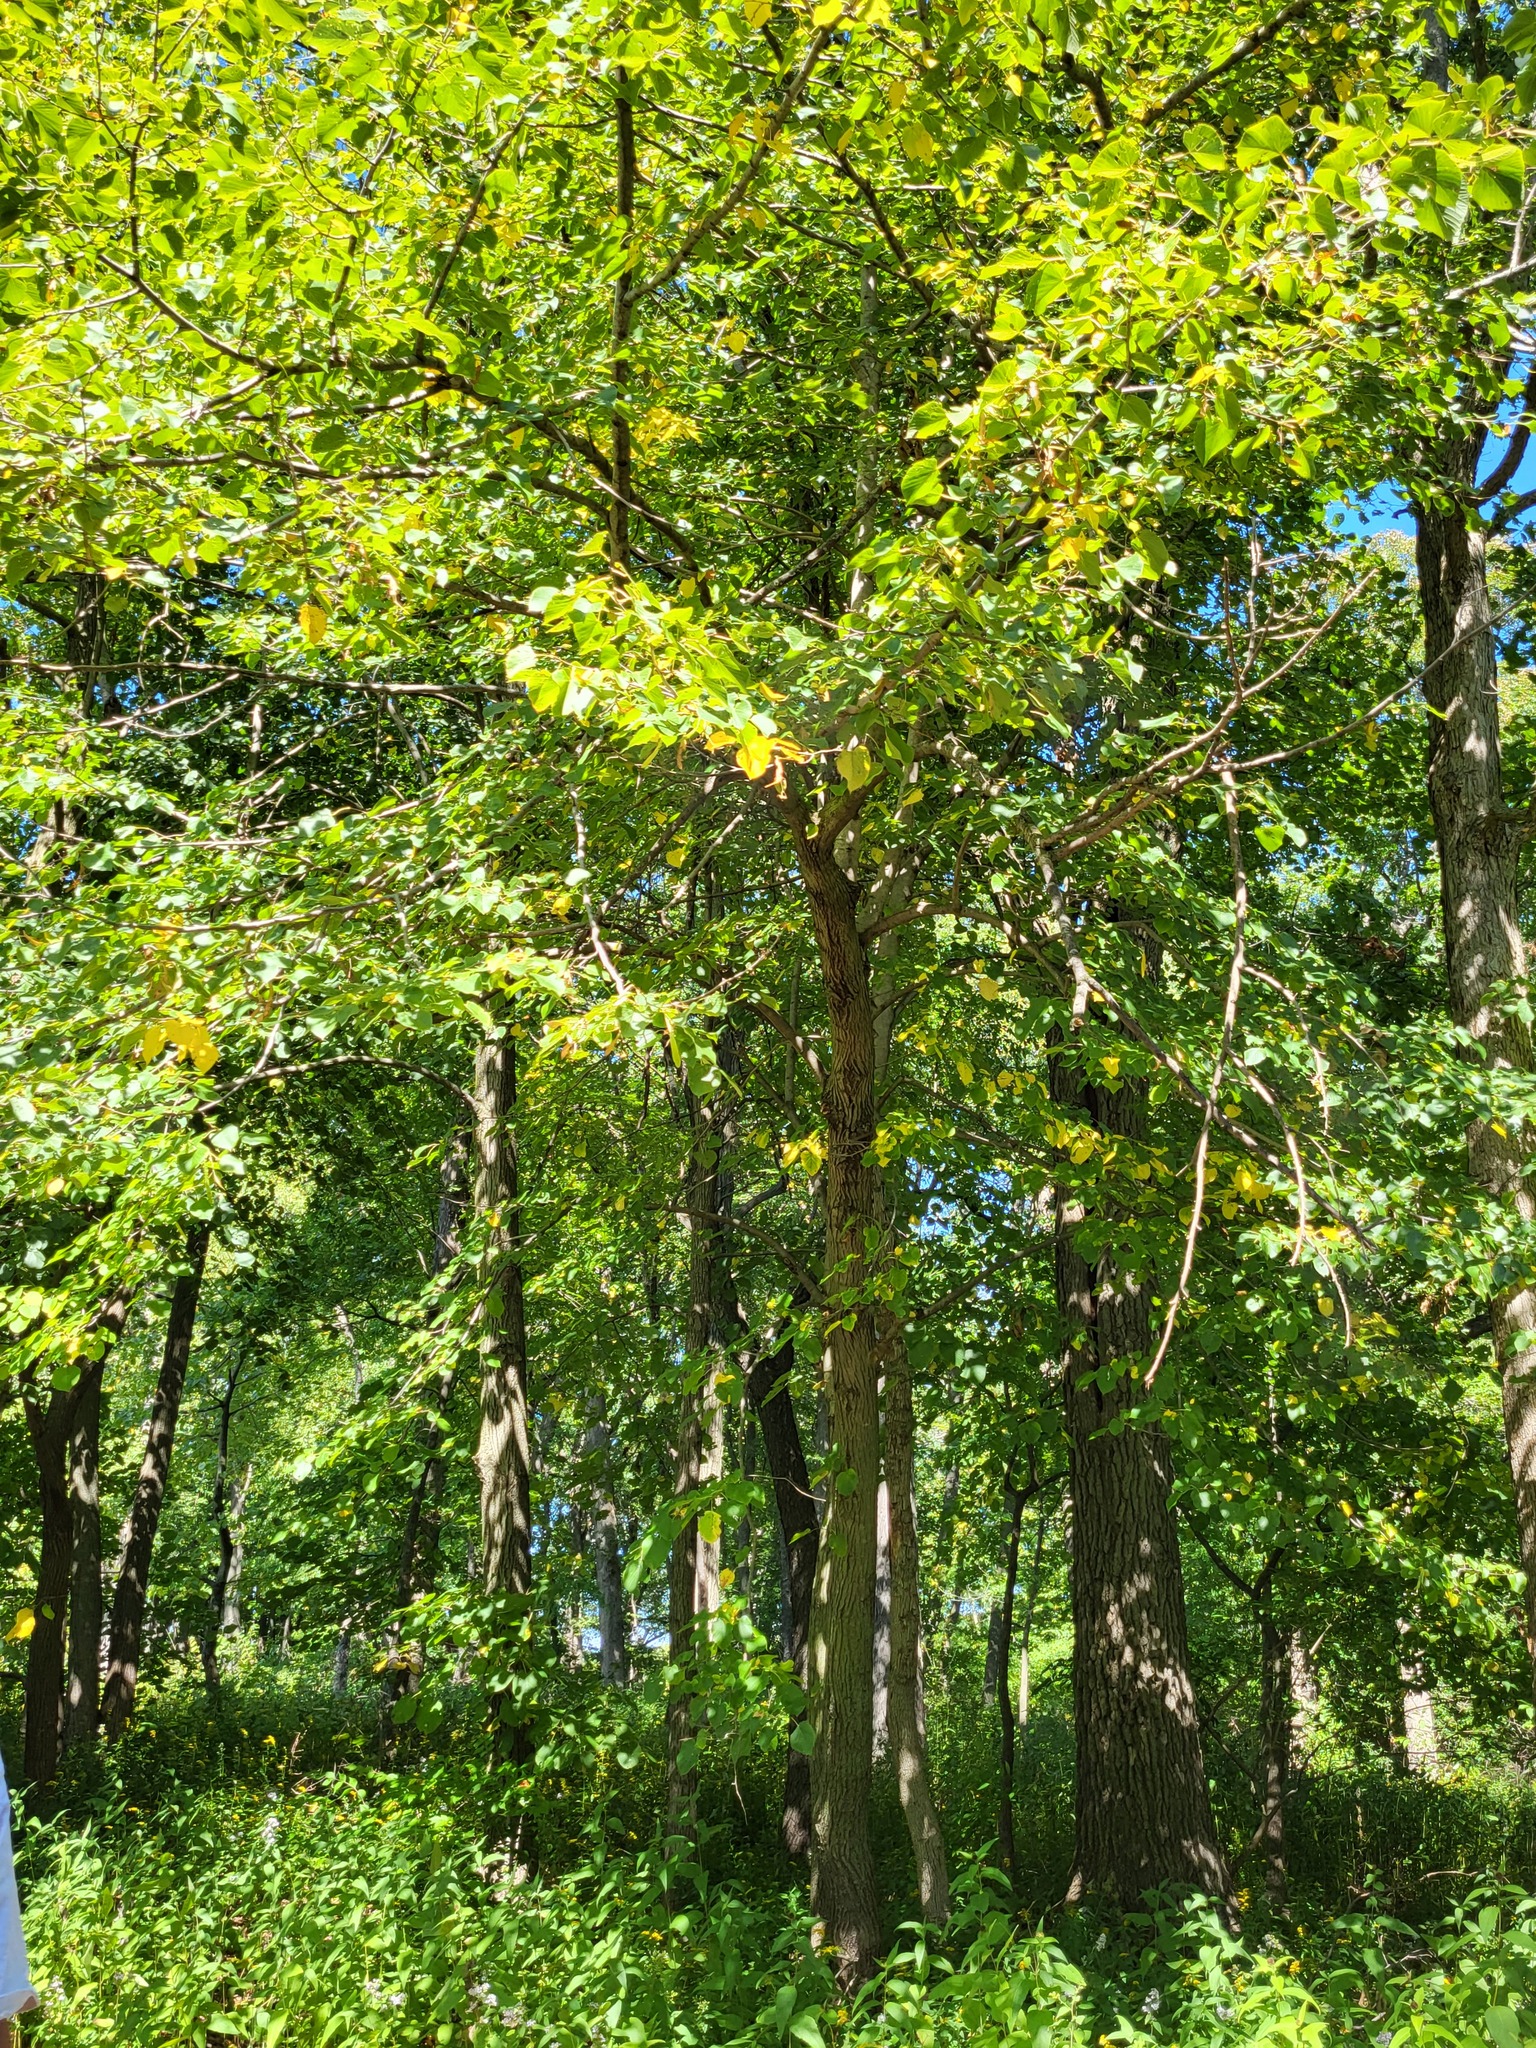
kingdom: Plantae
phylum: Tracheophyta
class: Magnoliopsida
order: Malvales
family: Malvaceae
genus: Tilia
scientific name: Tilia americana
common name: Basswood
